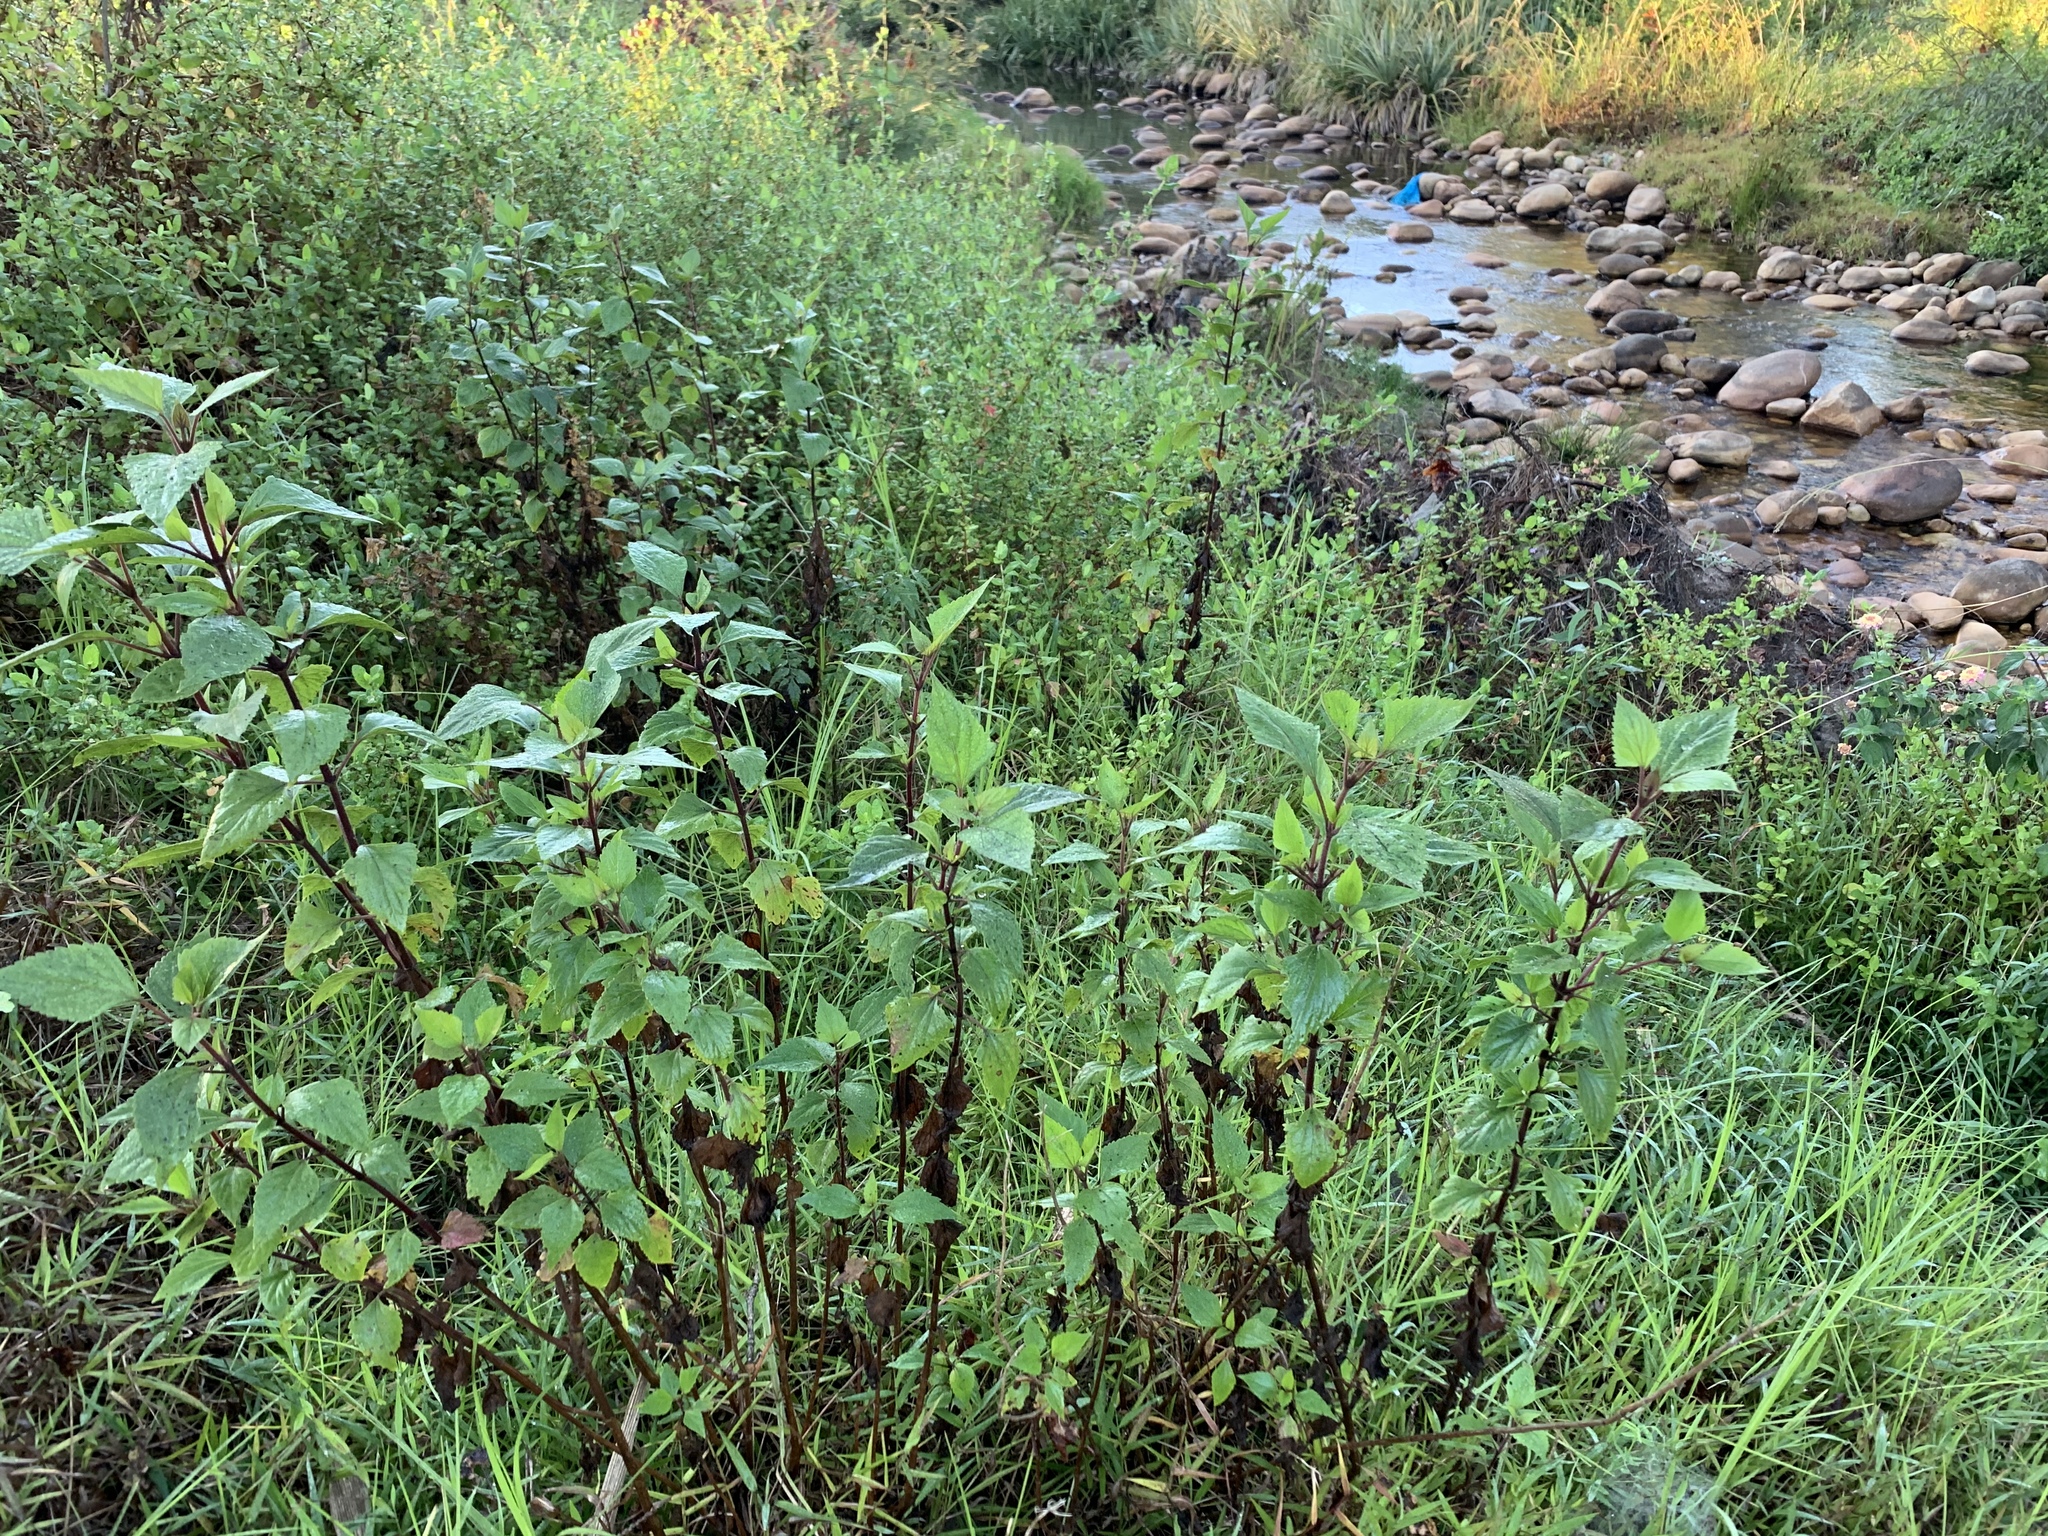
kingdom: Plantae
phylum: Tracheophyta
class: Magnoliopsida
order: Asterales
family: Asteraceae
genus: Ageratina
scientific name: Ageratina adenophora
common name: Sticky snakeroot
